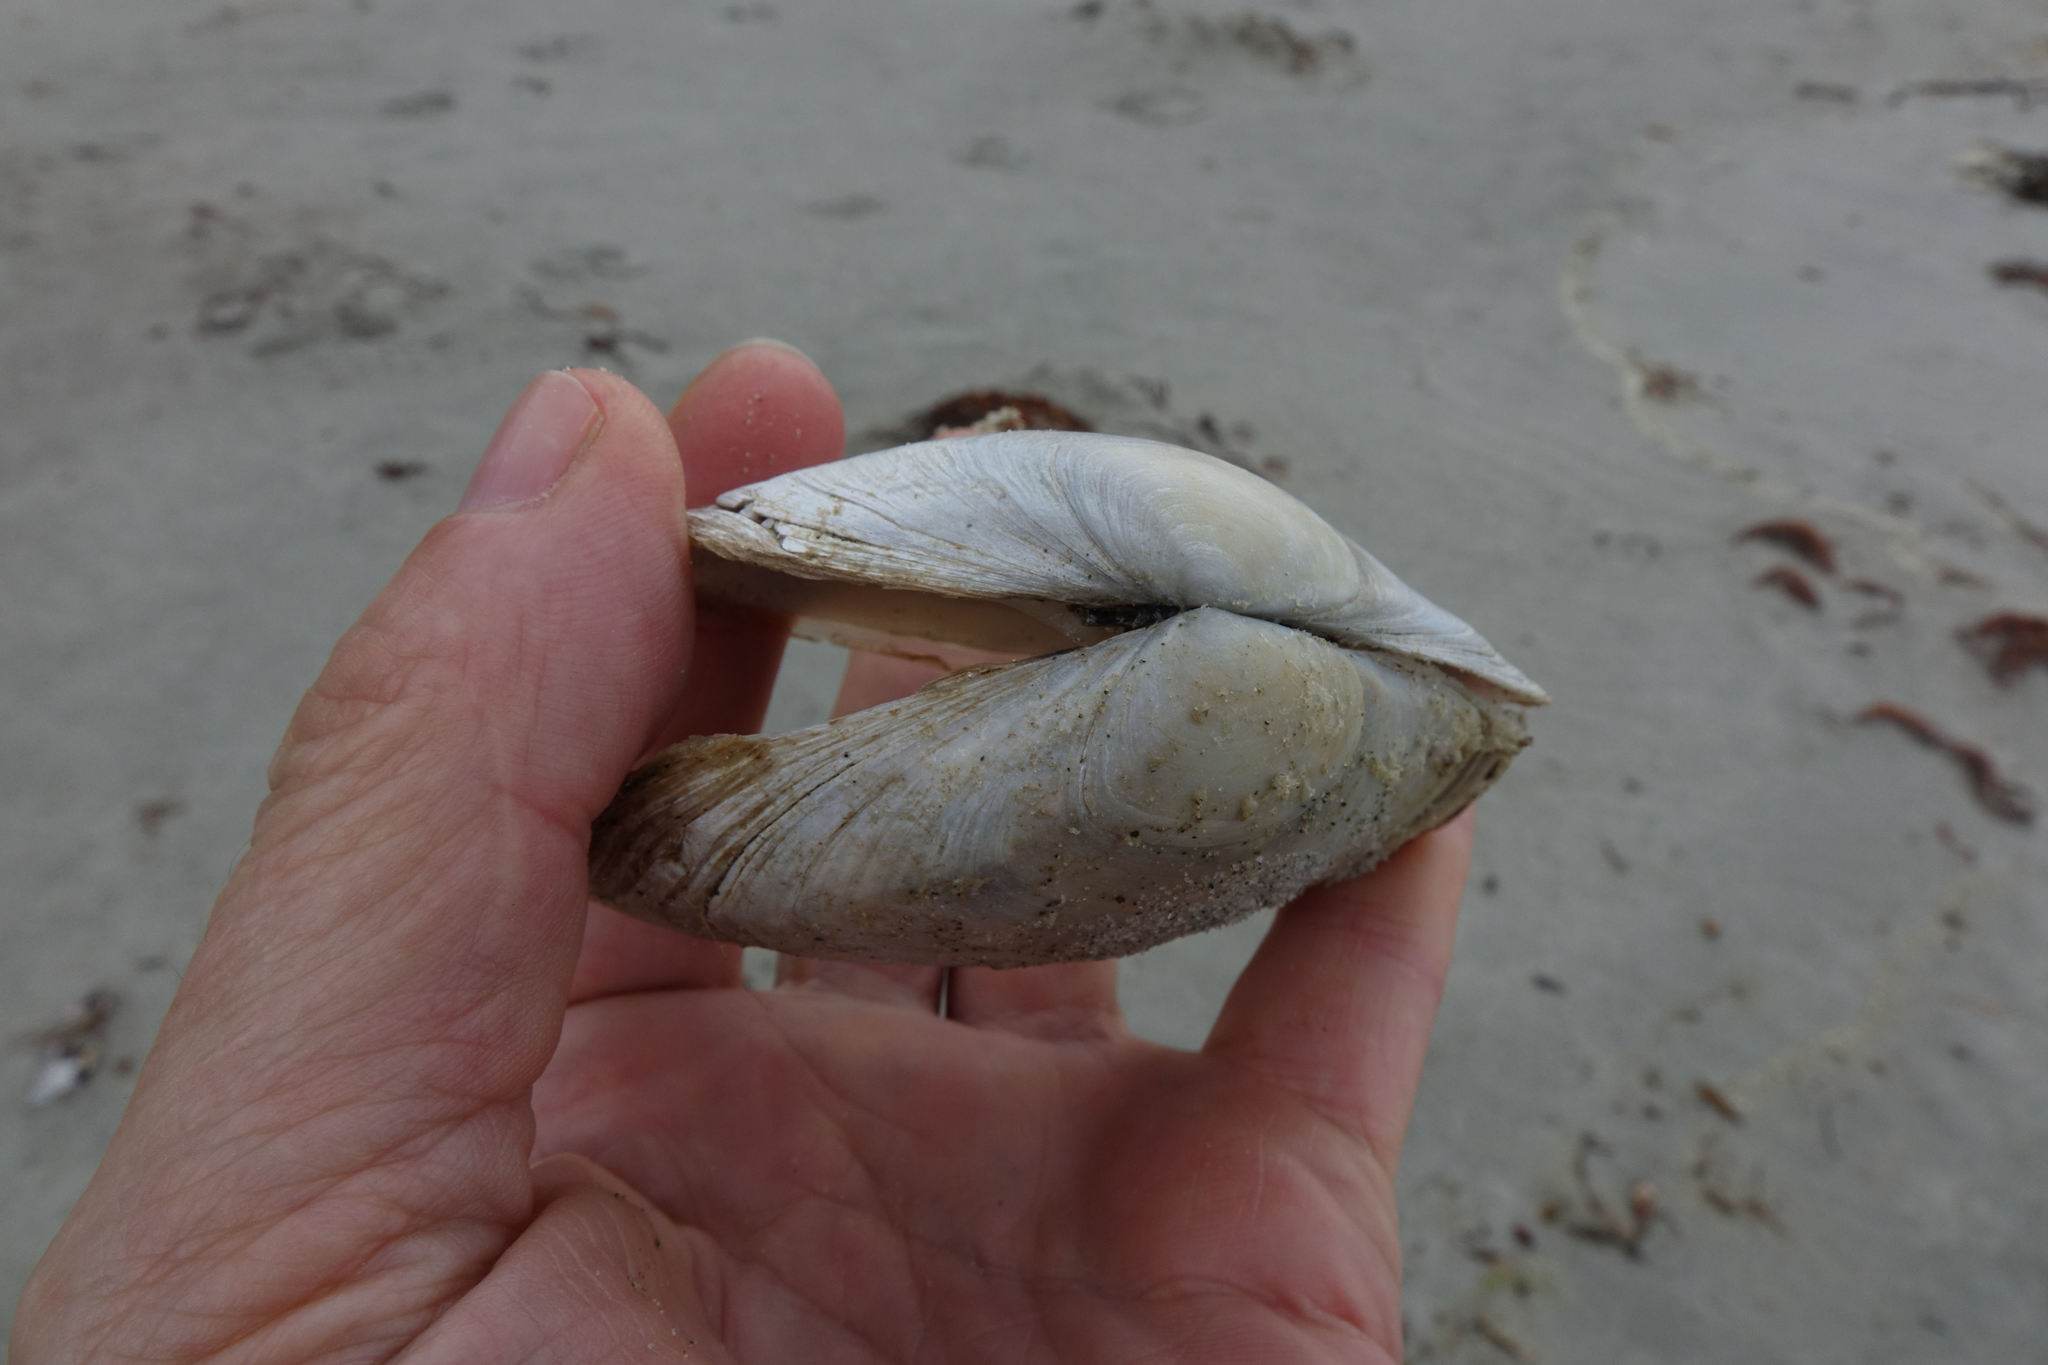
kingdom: Animalia
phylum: Mollusca
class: Bivalvia
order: Venerida
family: Mesodesmatidae
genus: Paphies
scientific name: Paphies donacina
